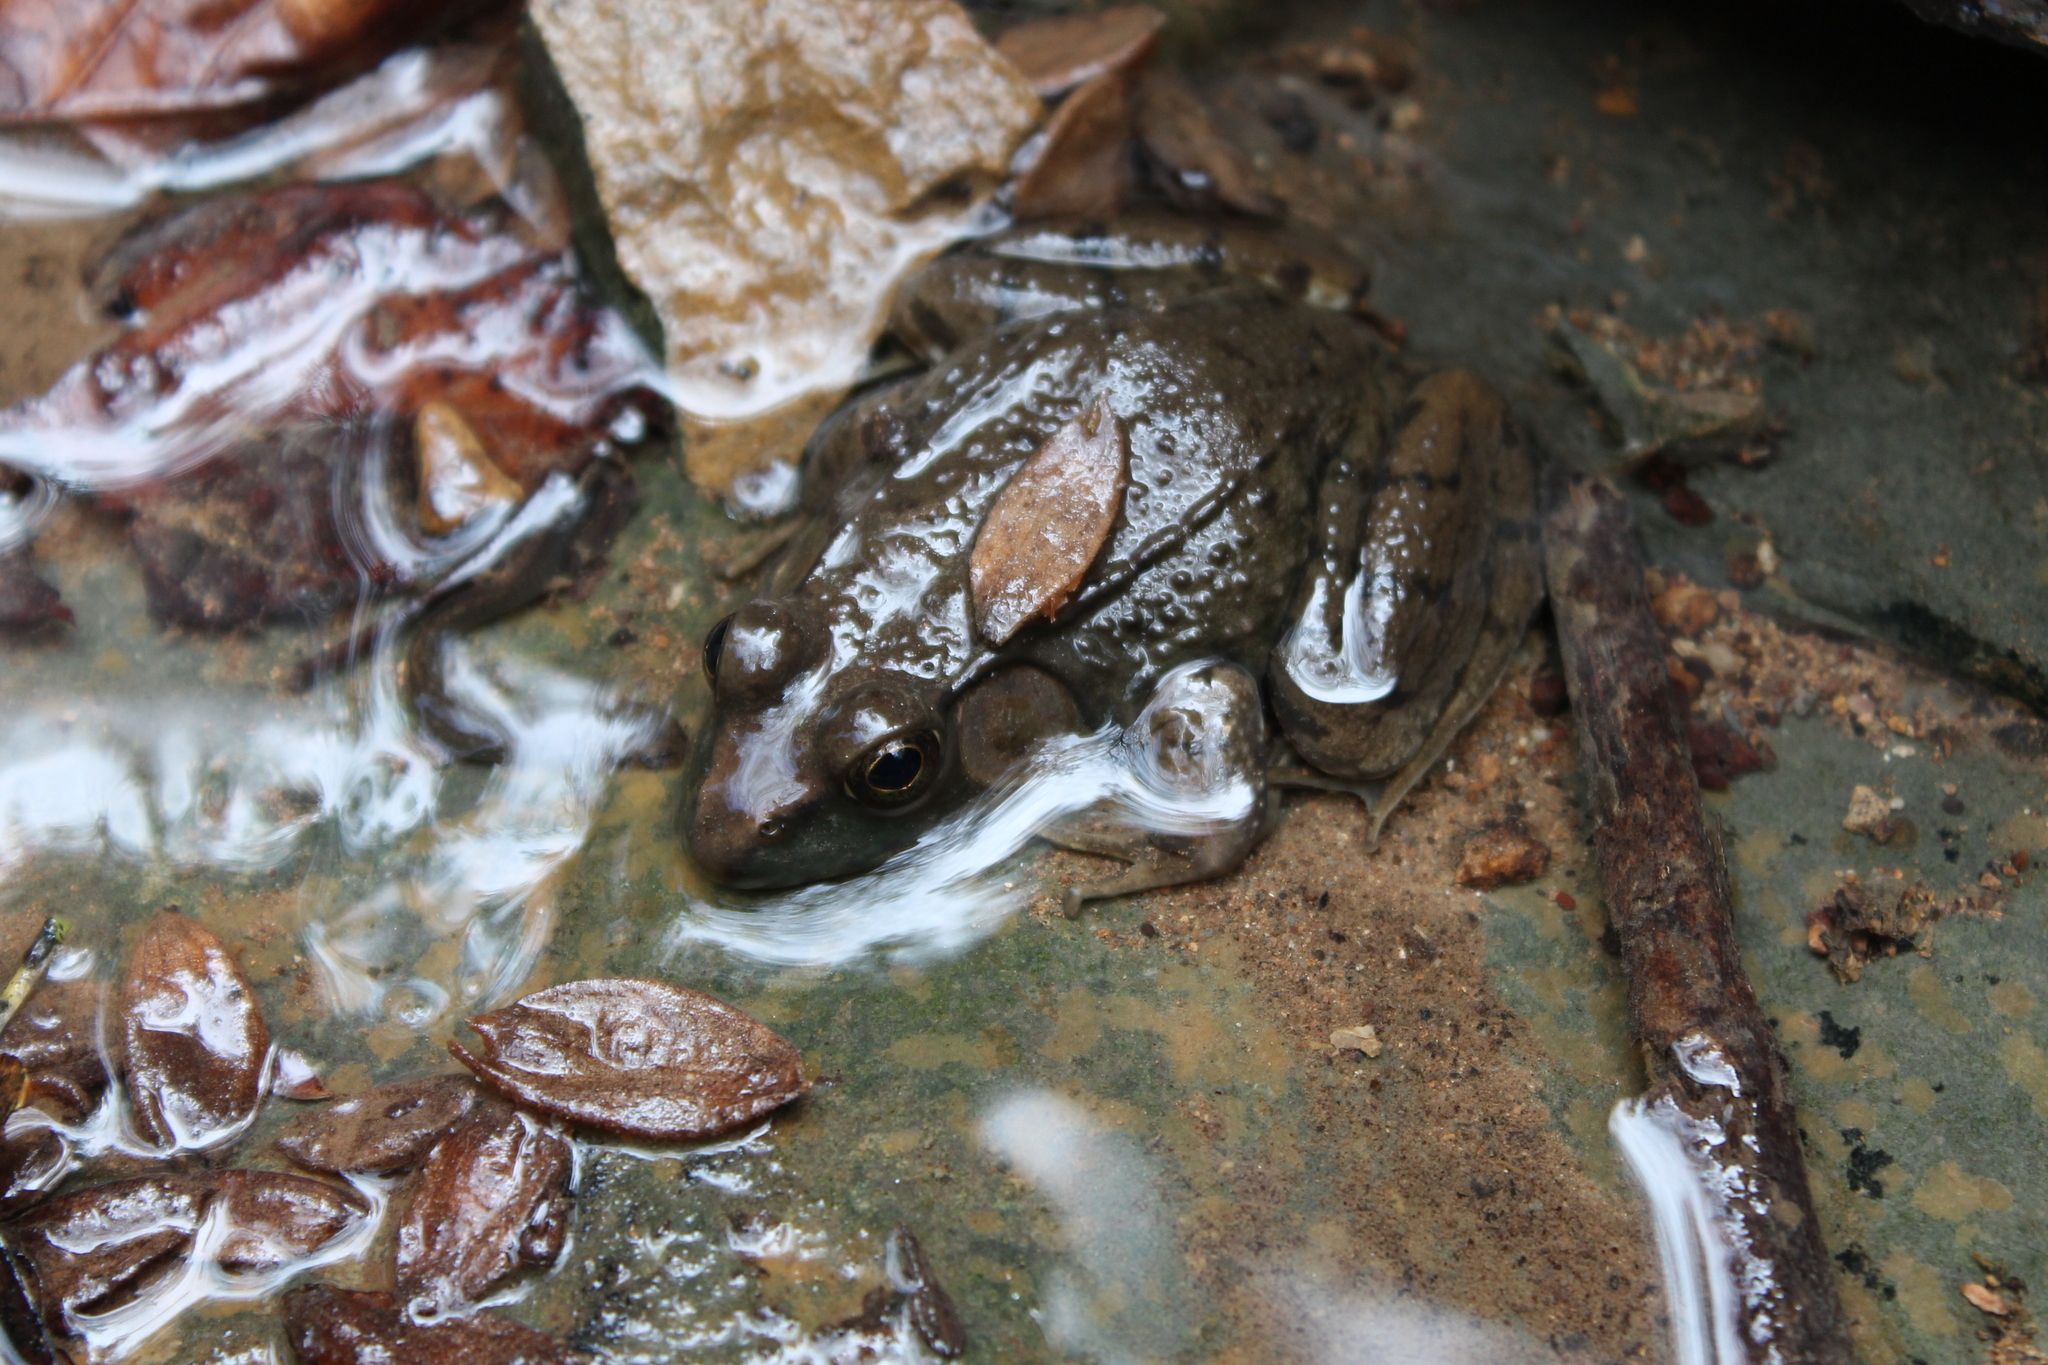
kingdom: Animalia
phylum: Chordata
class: Amphibia
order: Anura
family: Ranidae
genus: Lithobates
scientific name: Lithobates clamitans
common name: Green frog
